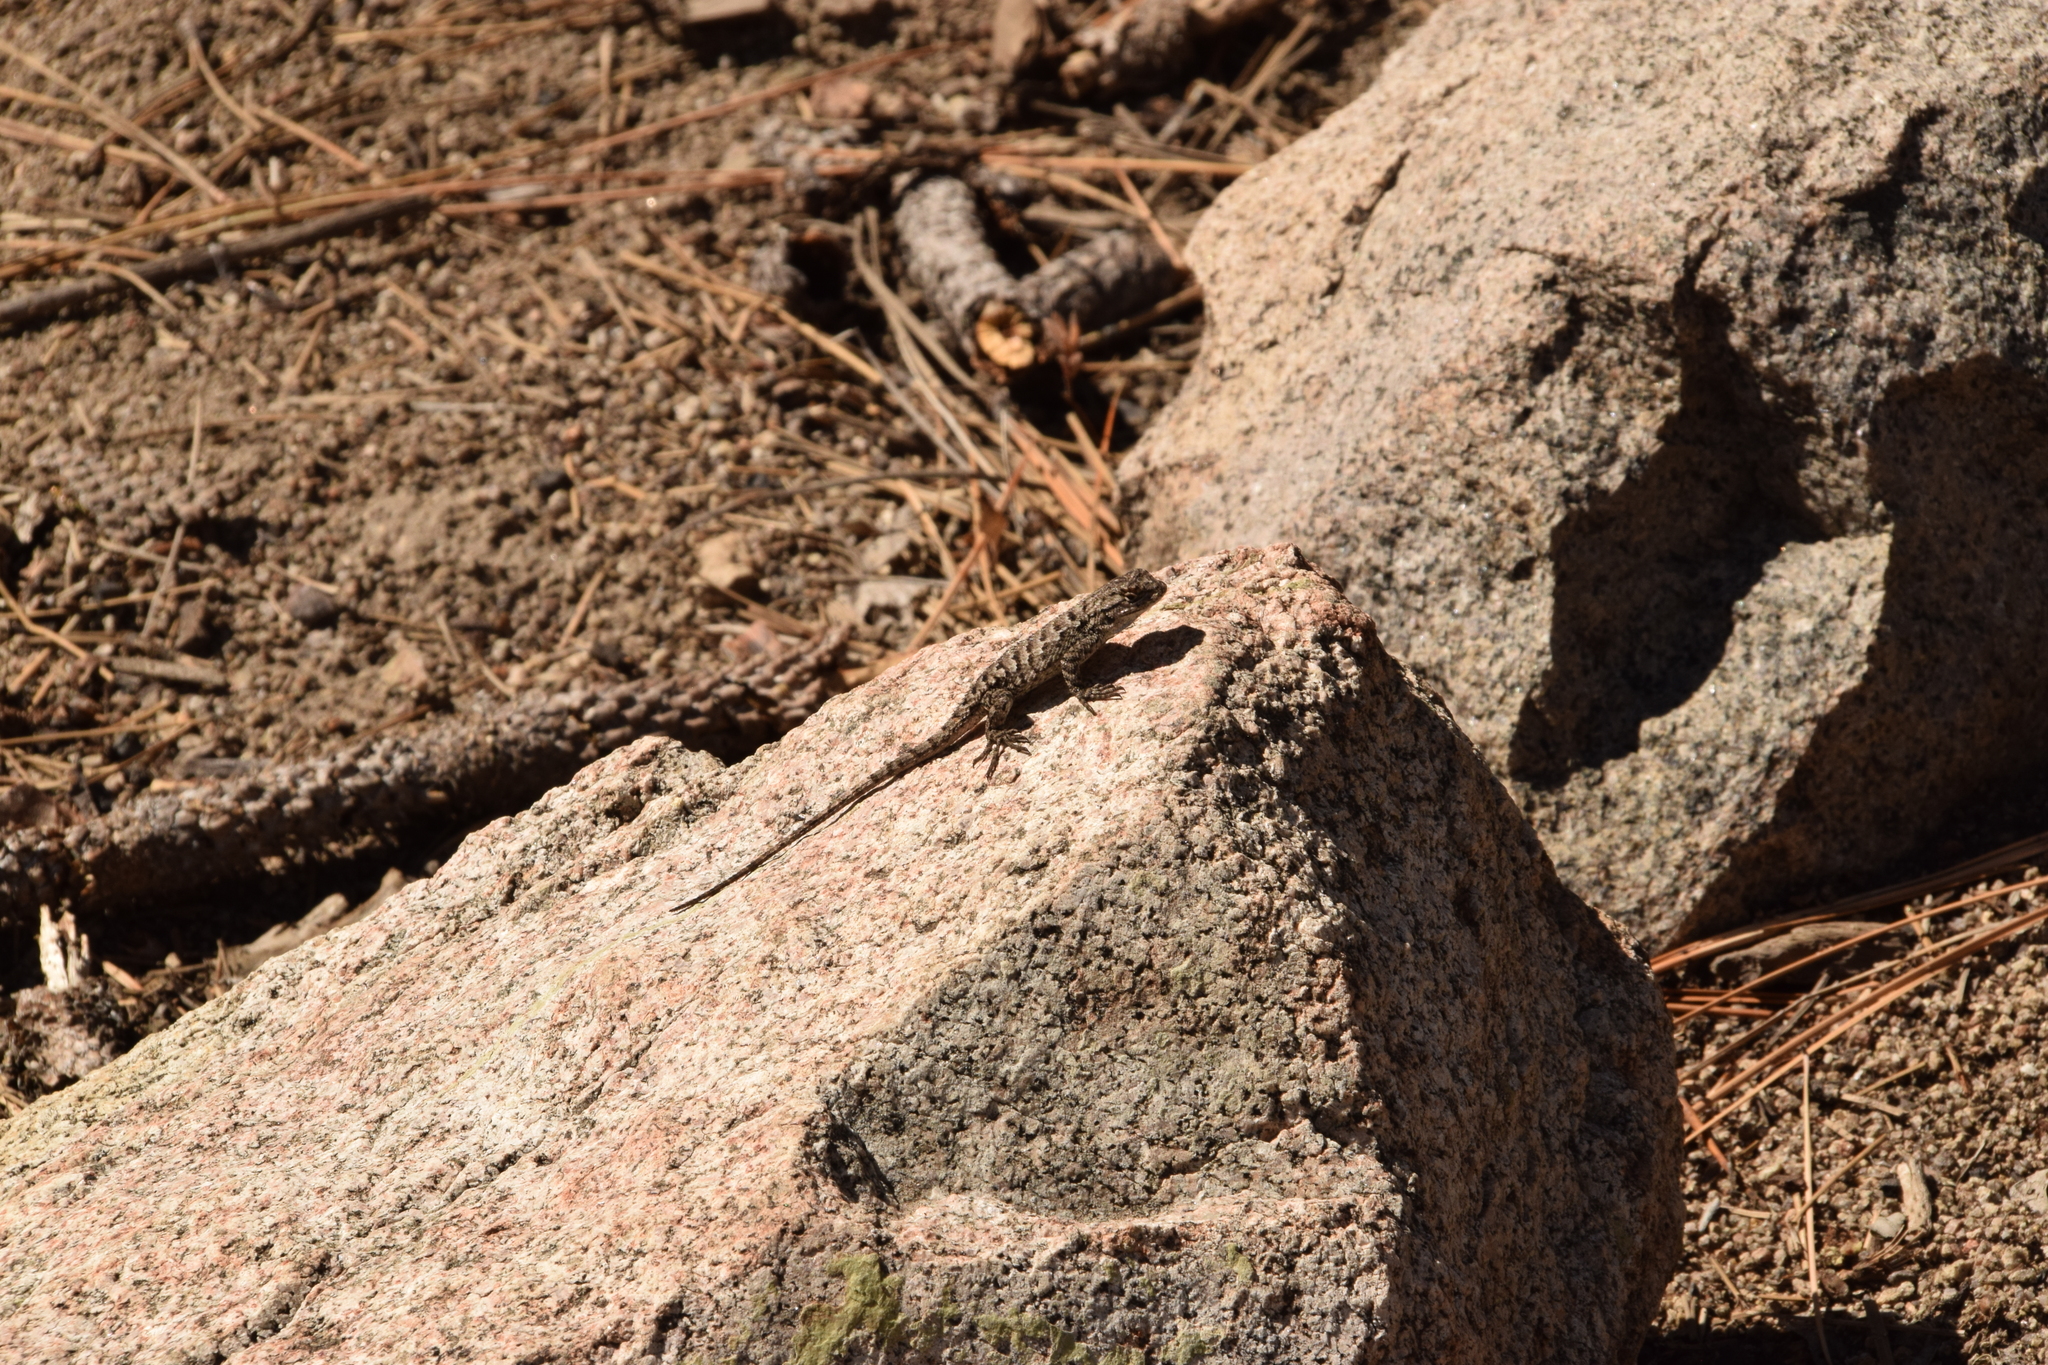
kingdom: Animalia
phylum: Chordata
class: Squamata
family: Phrynosomatidae
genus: Sceloporus
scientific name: Sceloporus occidentalis
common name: Western fence lizard
